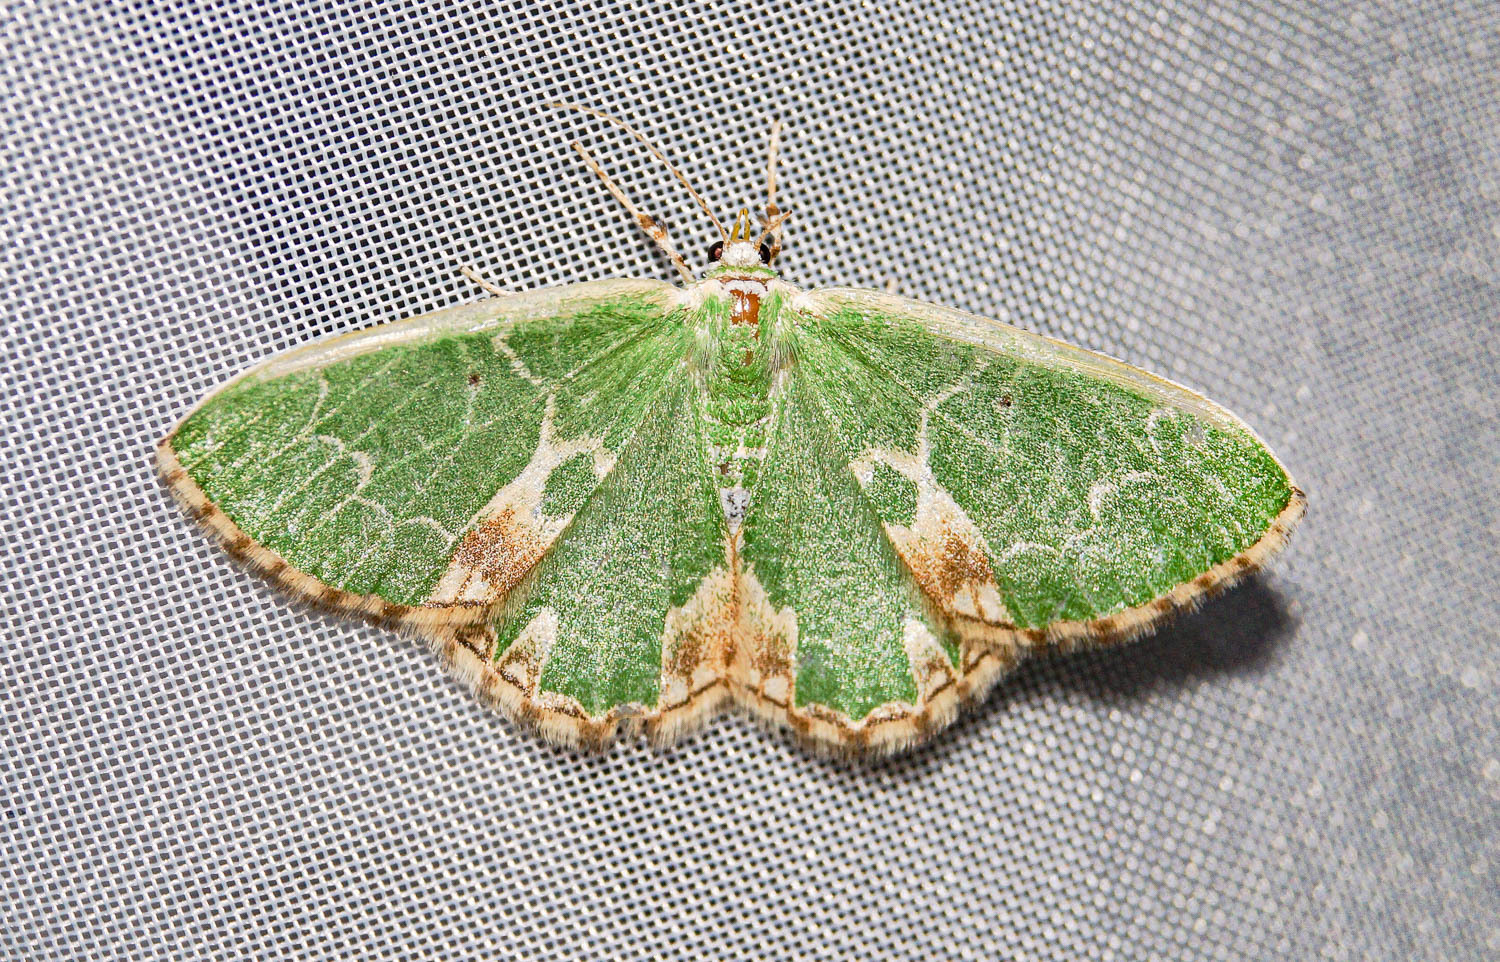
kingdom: Animalia
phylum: Arthropoda
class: Insecta
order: Lepidoptera
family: Geometridae
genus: Comibaena
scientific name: Comibaena bajularia
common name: Blotched emerald
